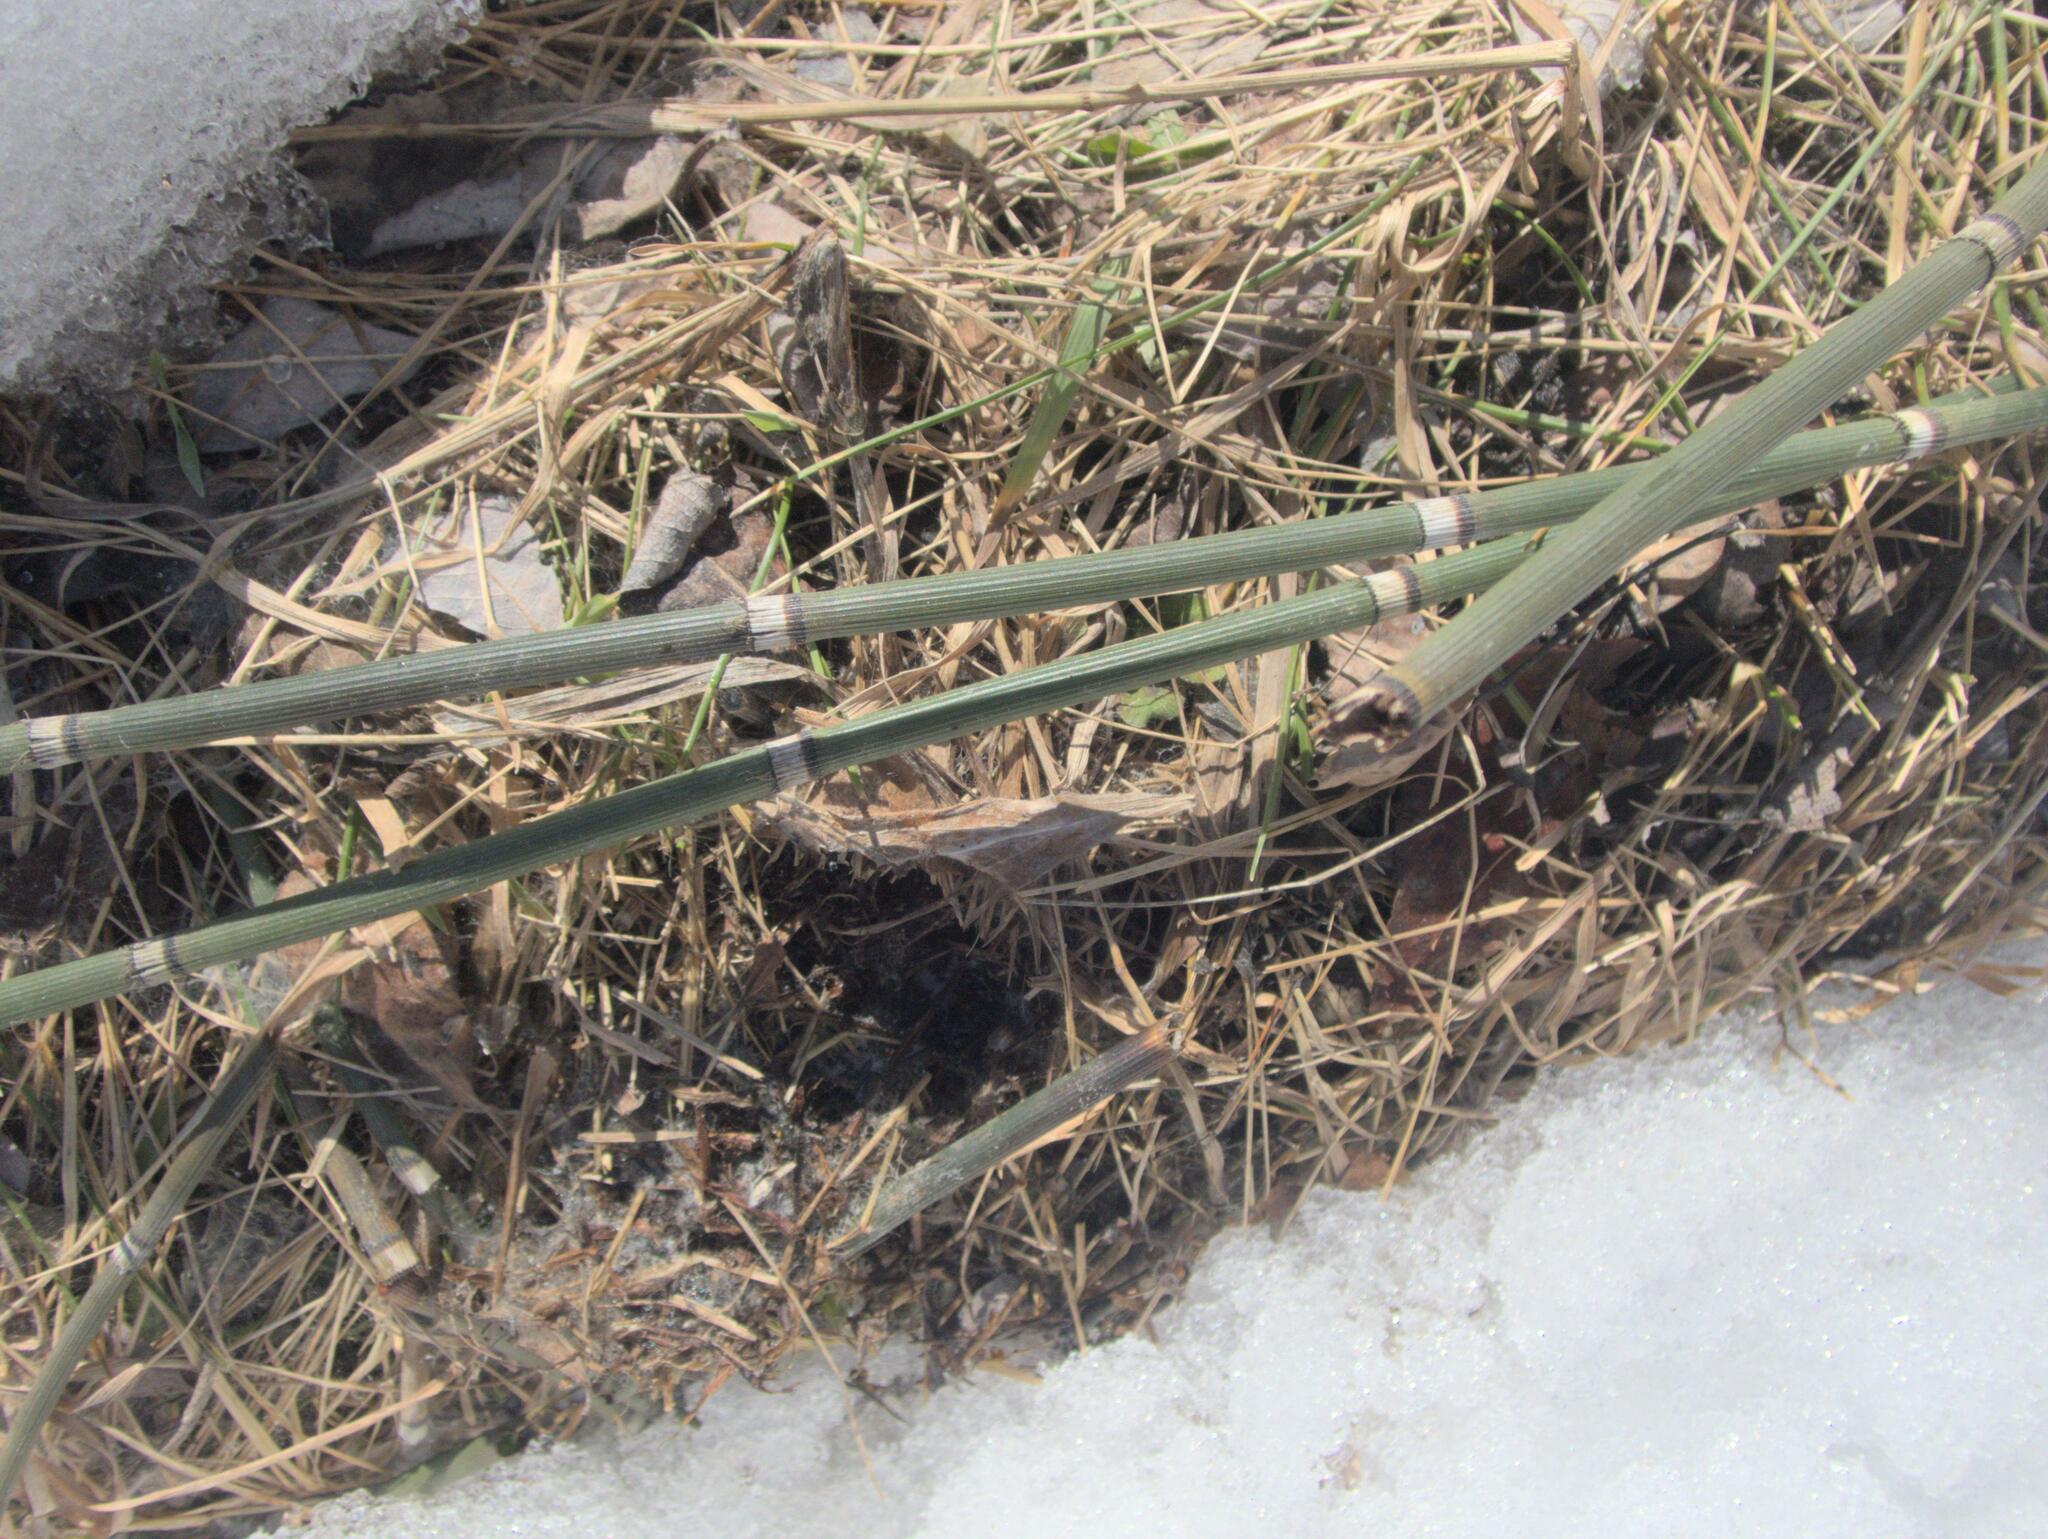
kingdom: Plantae
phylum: Tracheophyta
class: Polypodiopsida
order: Equisetales
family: Equisetaceae
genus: Equisetum
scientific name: Equisetum praealtum
